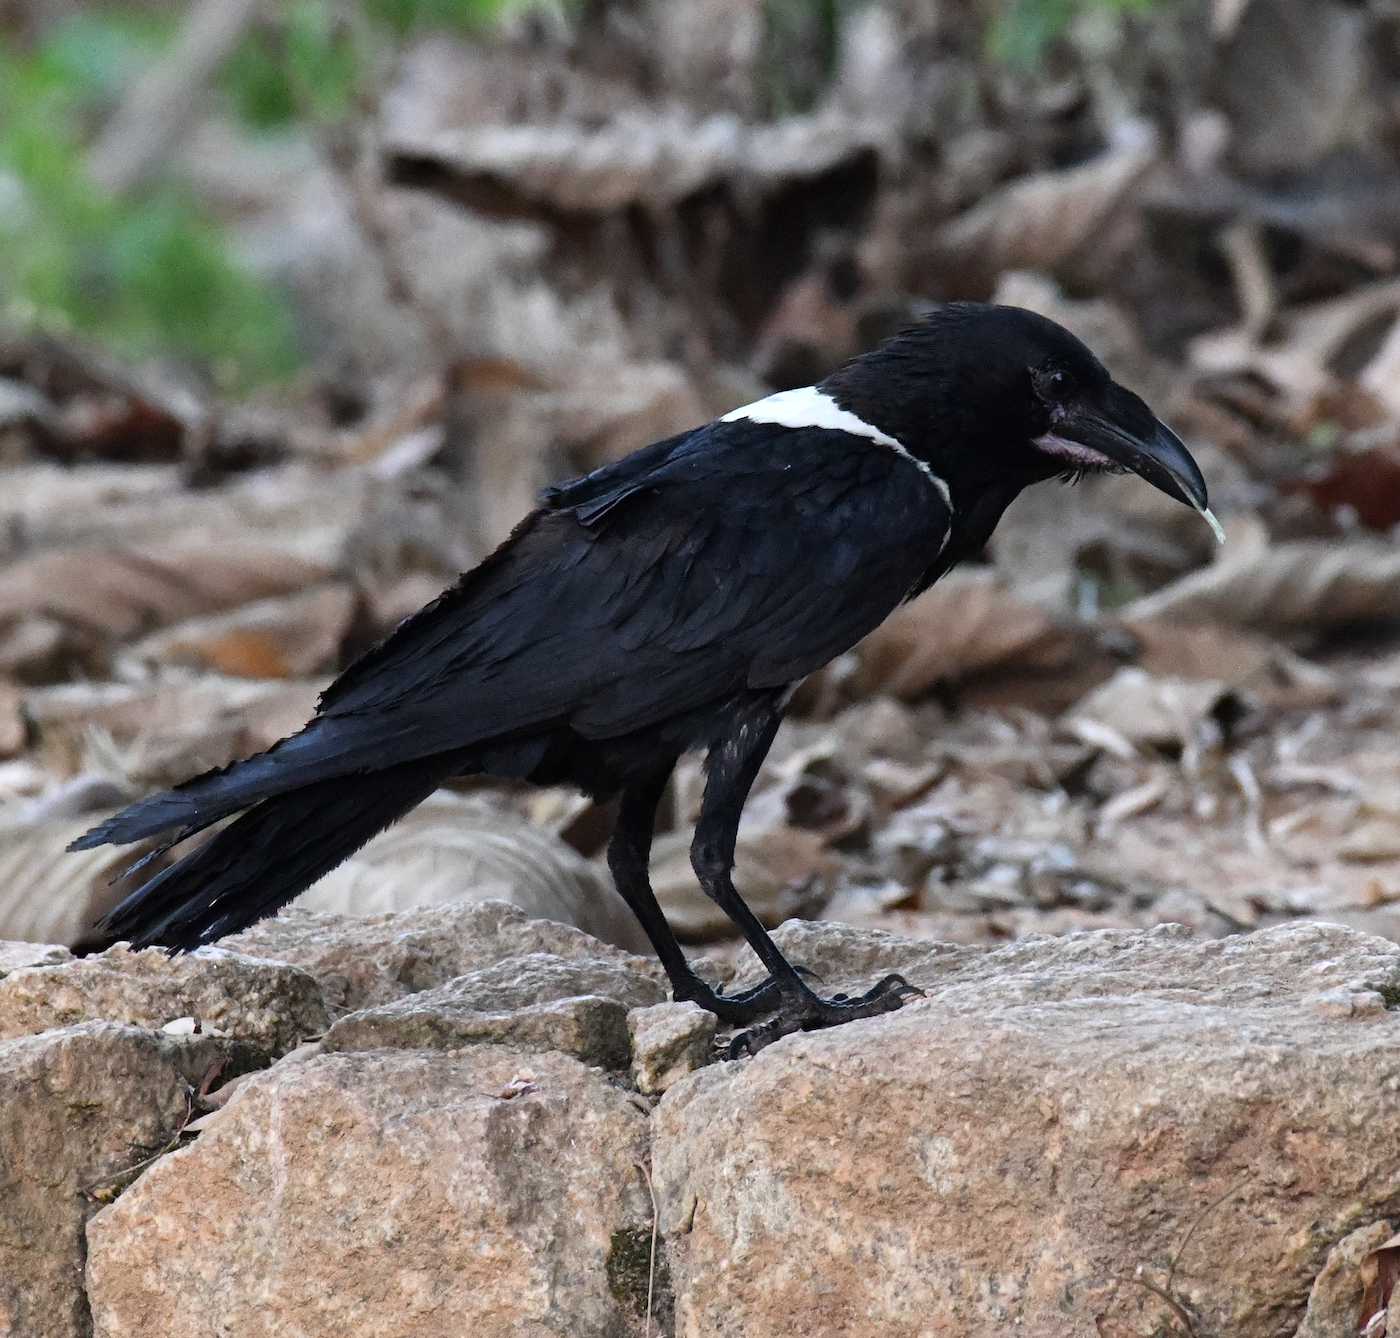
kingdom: Animalia
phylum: Chordata
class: Aves
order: Passeriformes
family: Corvidae
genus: Corvus
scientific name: Corvus albus
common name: Pied crow
